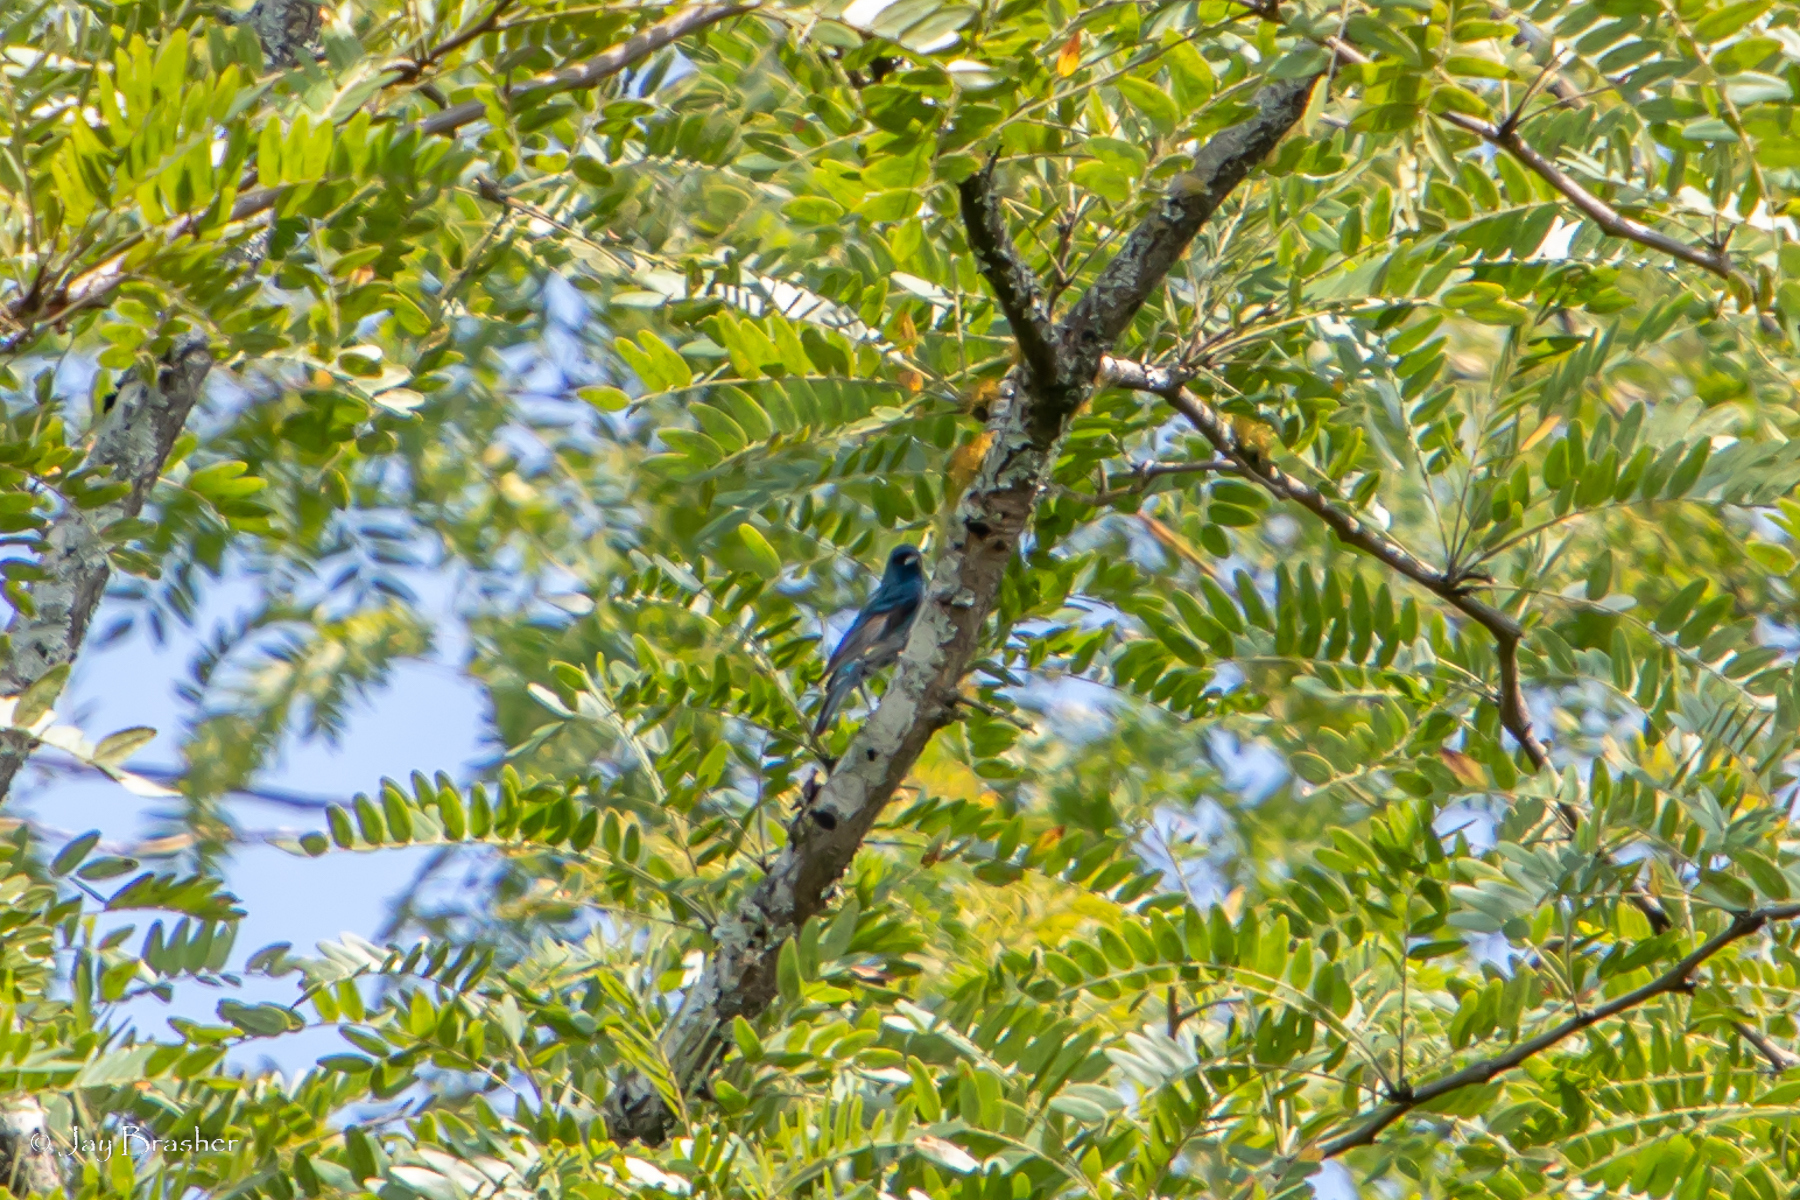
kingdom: Animalia
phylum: Chordata
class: Aves
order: Passeriformes
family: Cardinalidae
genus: Passerina
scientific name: Passerina cyanea
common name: Indigo bunting
